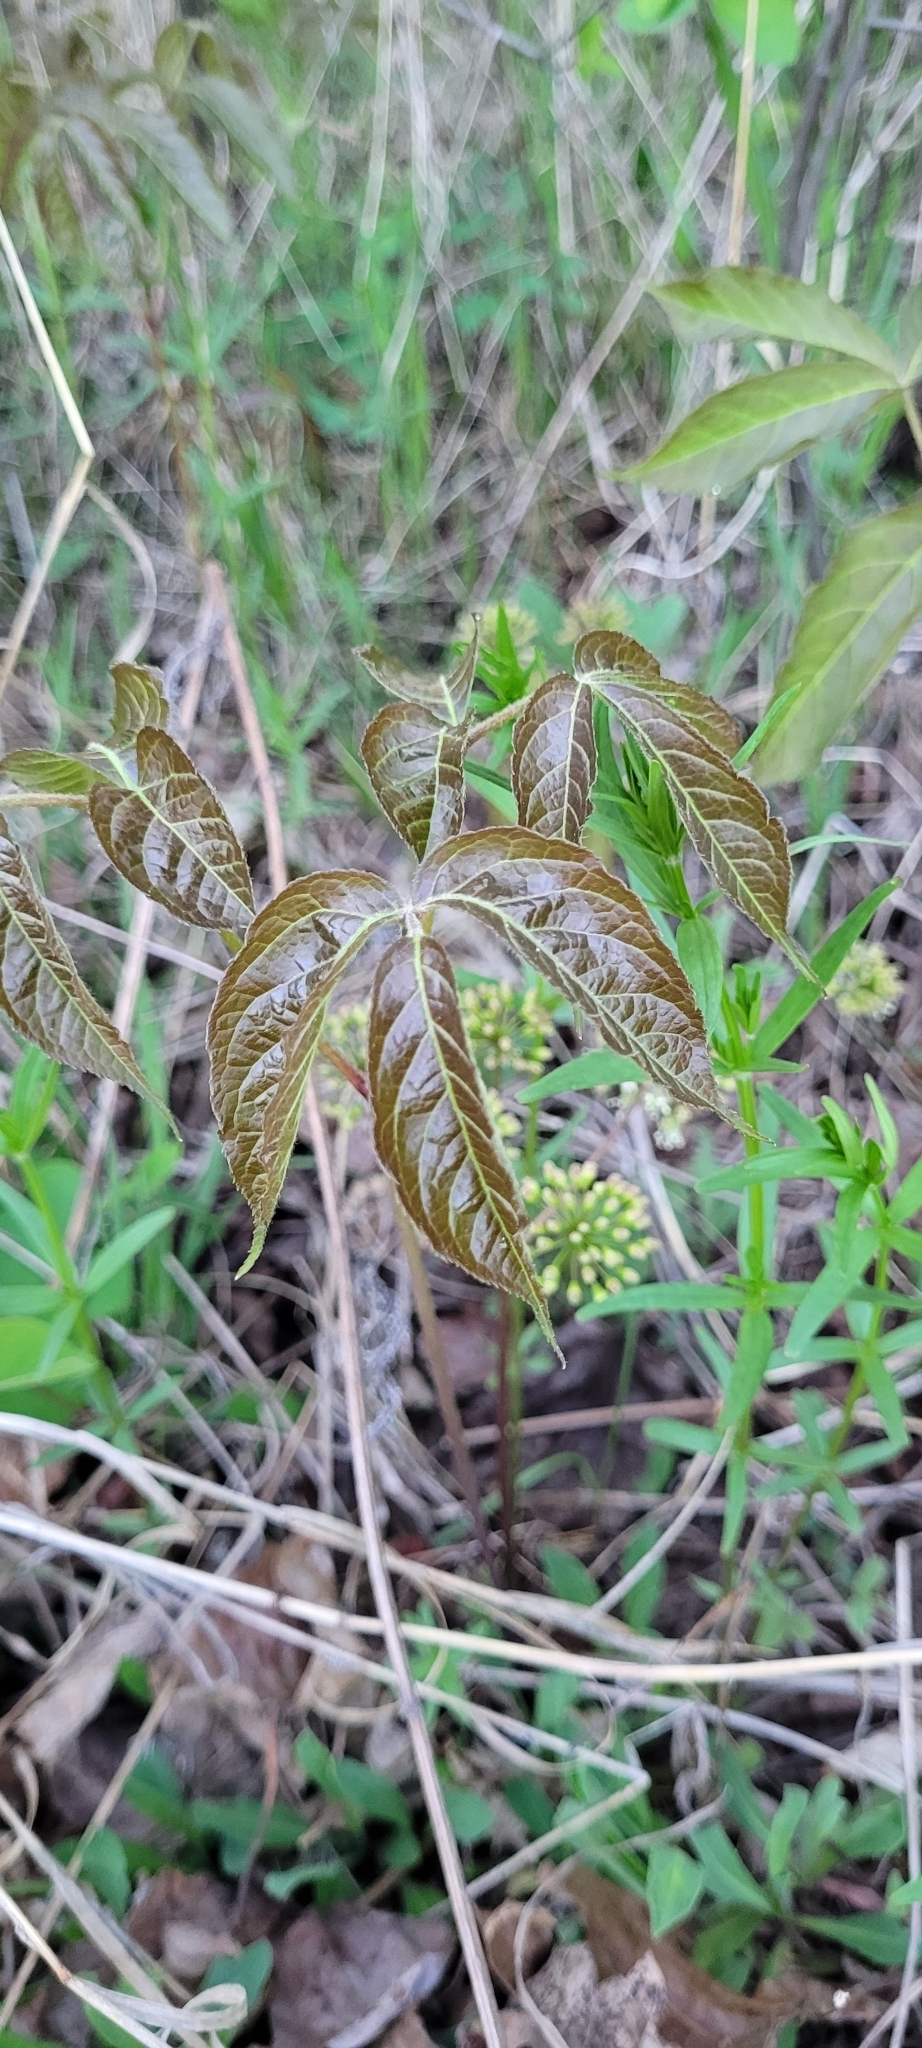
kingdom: Plantae
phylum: Tracheophyta
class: Magnoliopsida
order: Apiales
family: Araliaceae
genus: Aralia
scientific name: Aralia nudicaulis
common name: Wild sarsaparilla
